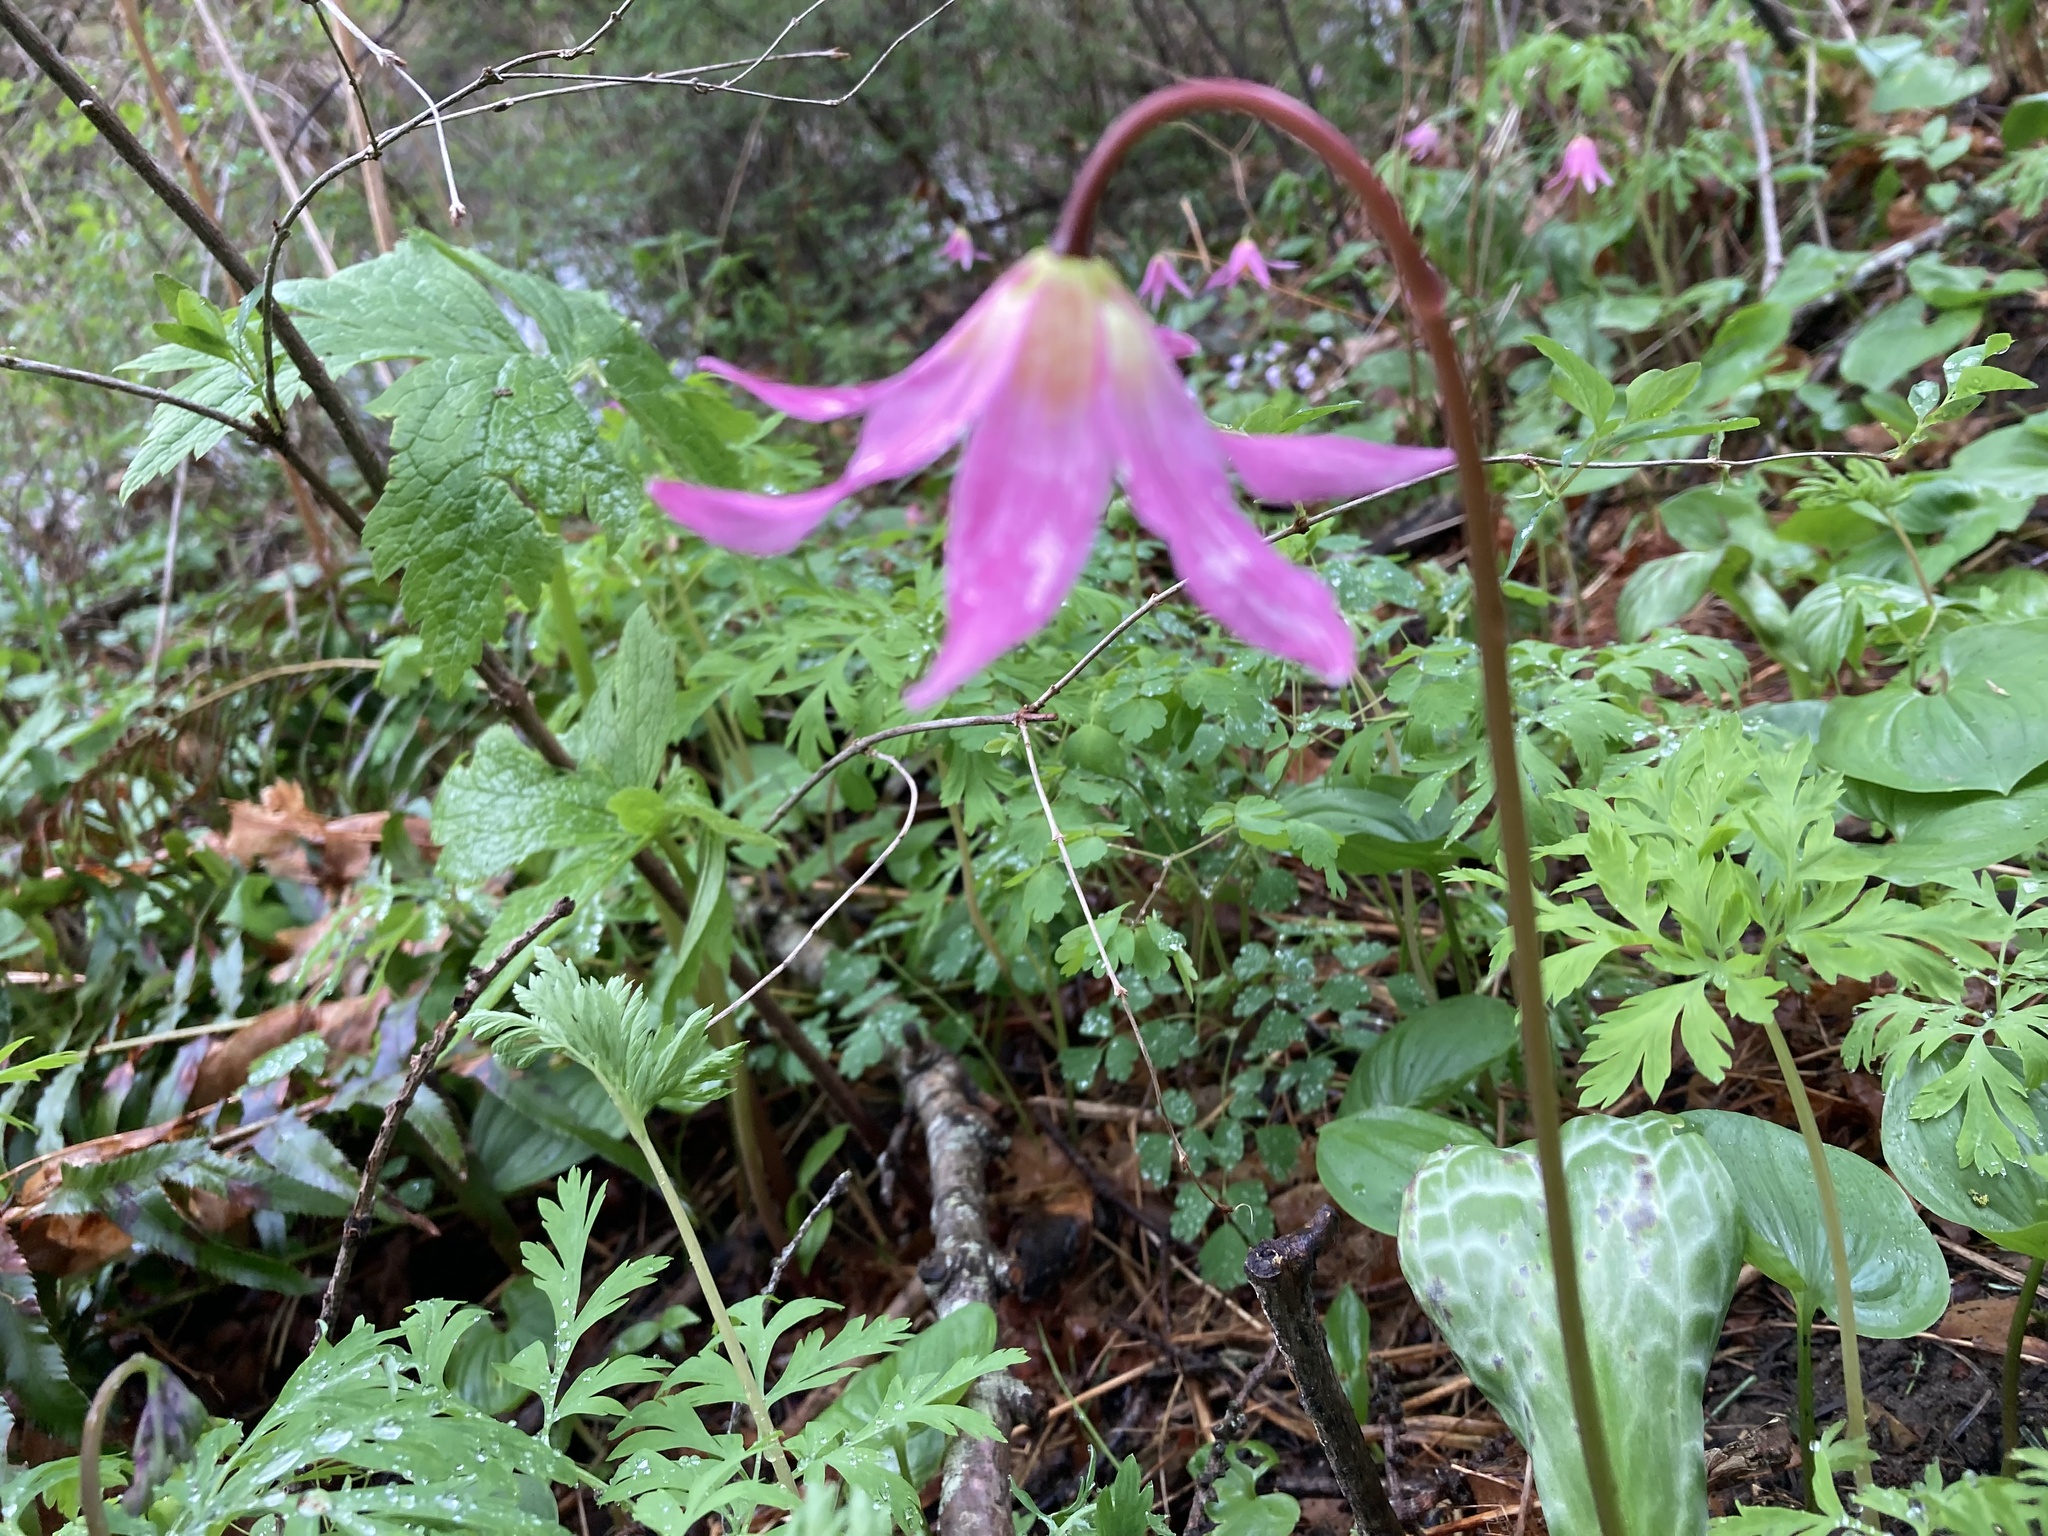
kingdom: Plantae
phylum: Tracheophyta
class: Liliopsida
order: Liliales
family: Liliaceae
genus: Erythronium
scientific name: Erythronium revolutum
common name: Pink fawn-lily
